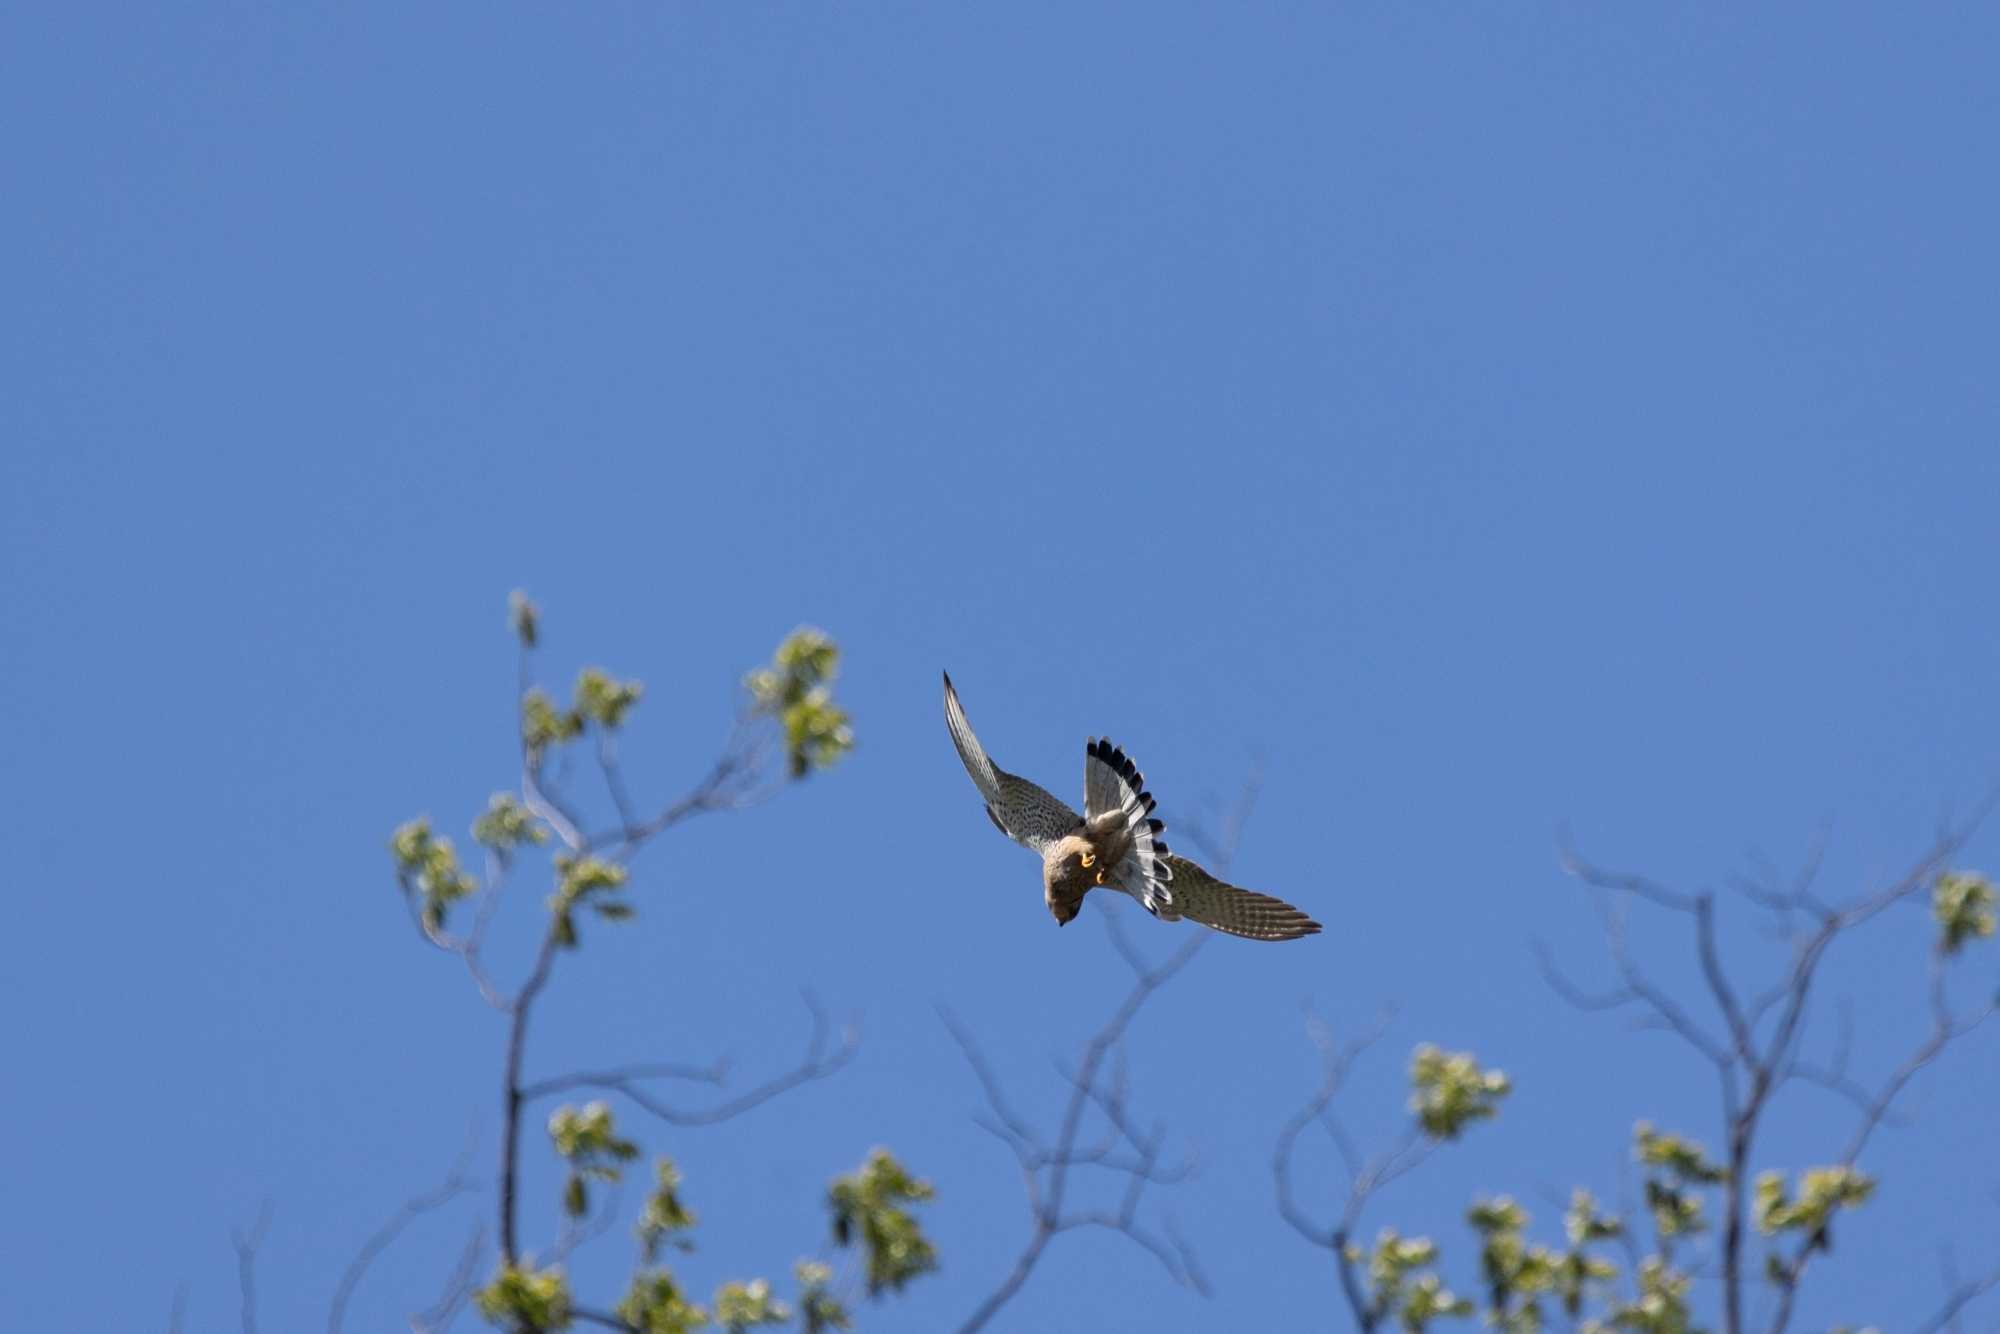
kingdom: Animalia
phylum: Chordata
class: Aves
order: Falconiformes
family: Falconidae
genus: Falco
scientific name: Falco tinnunculus
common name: Common kestrel
